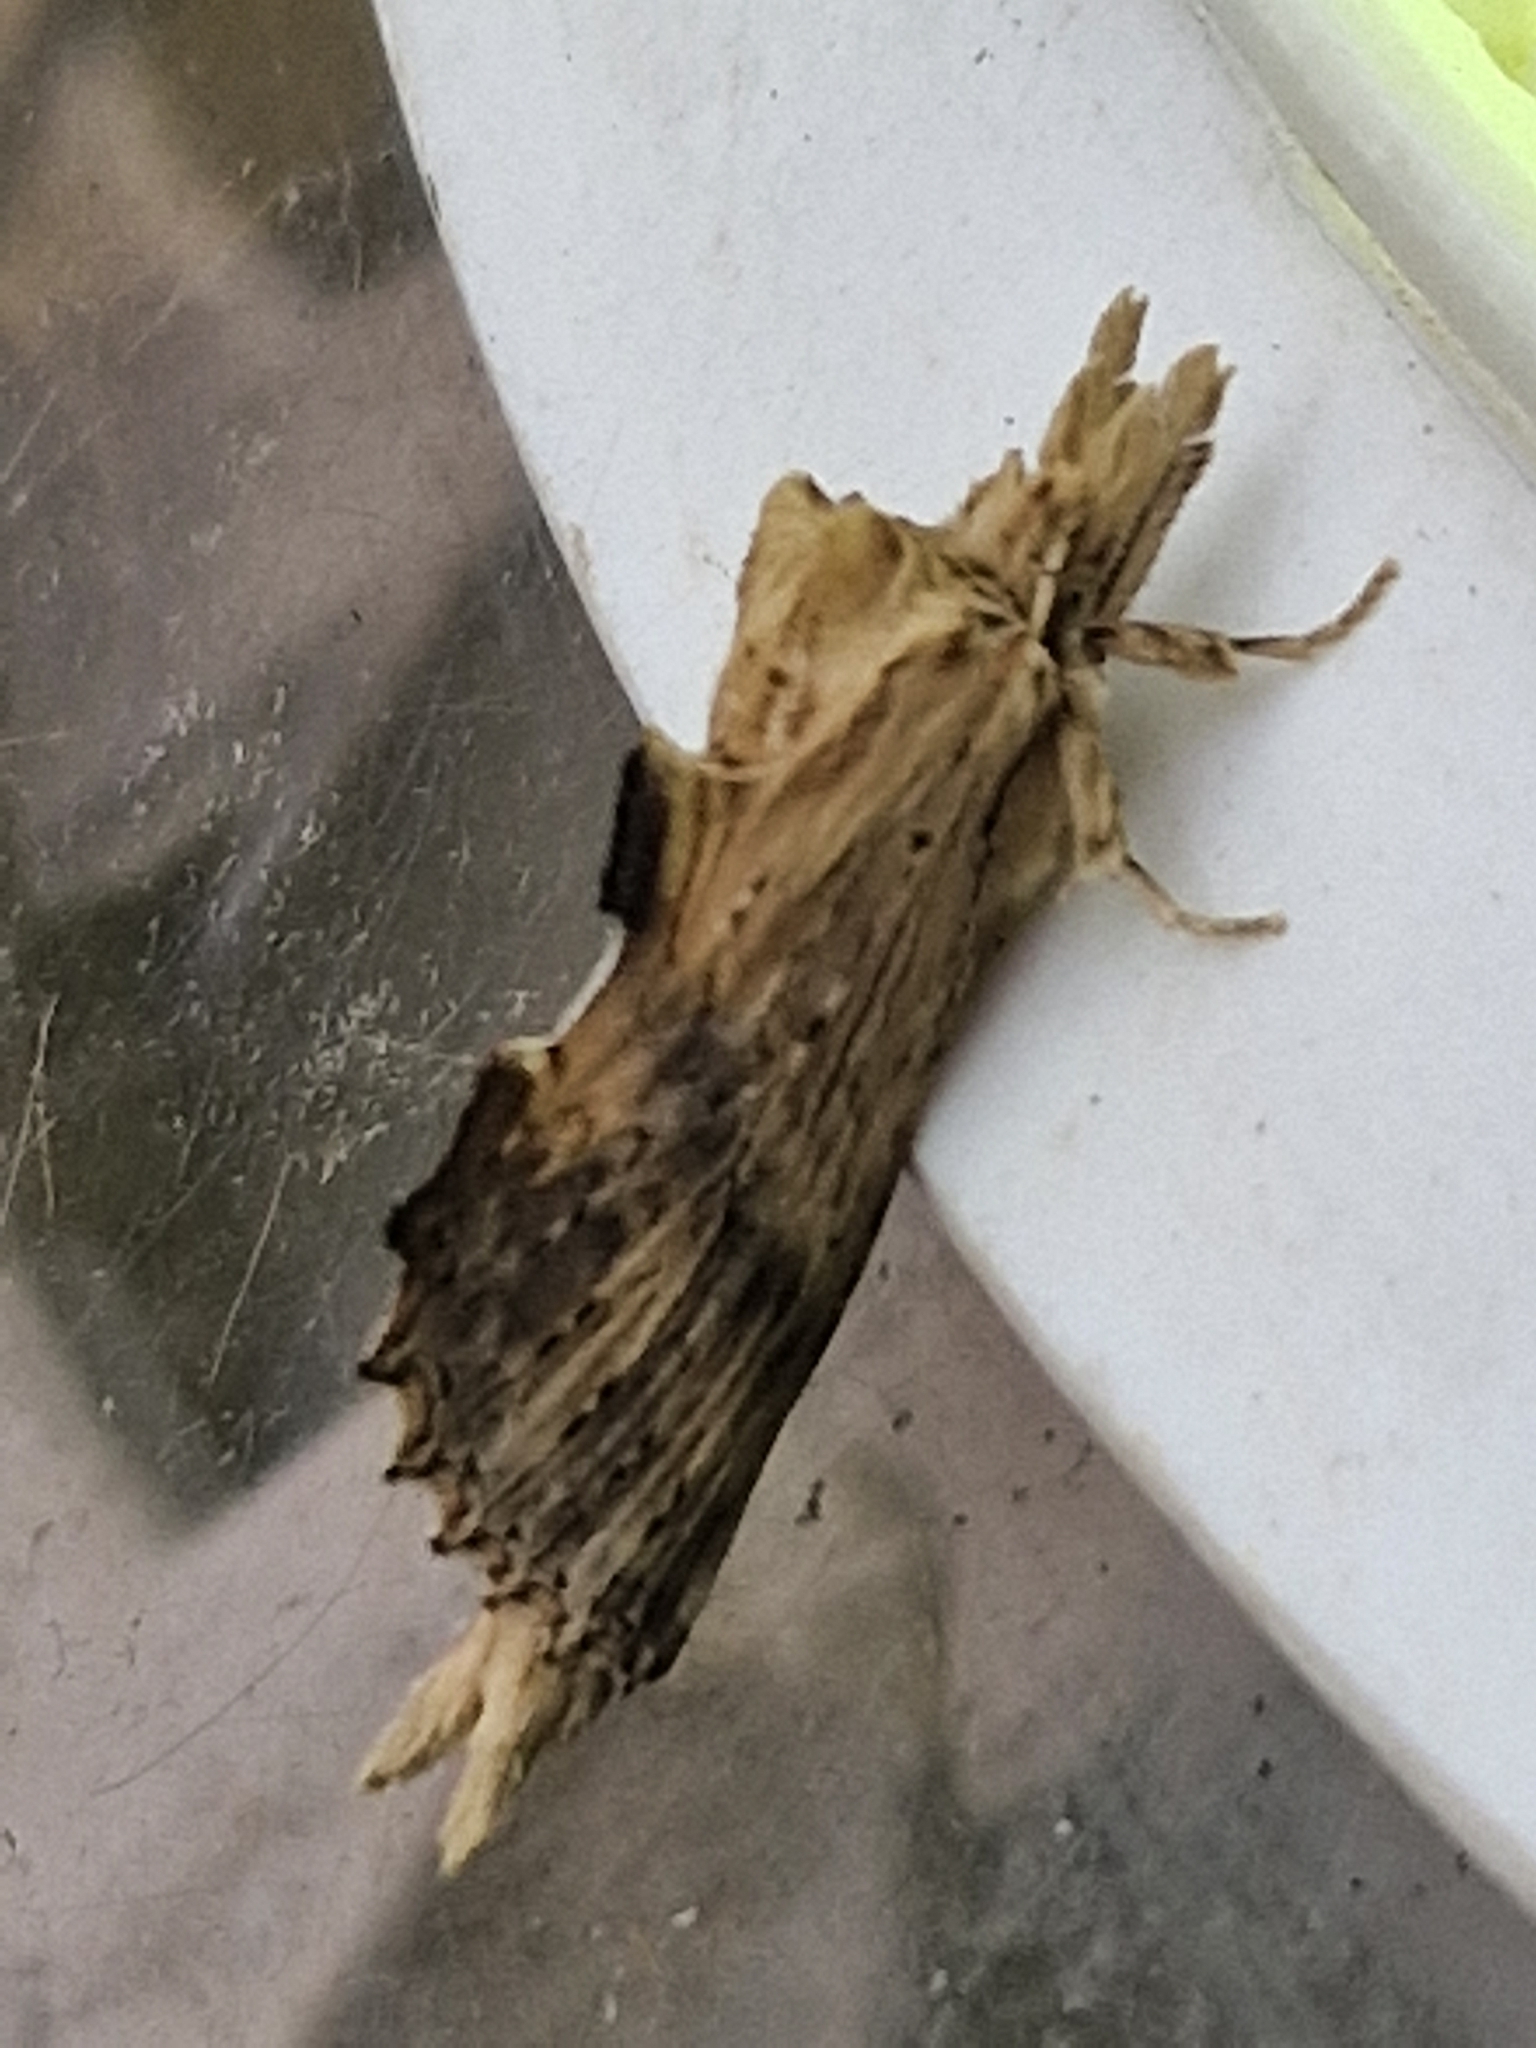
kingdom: Animalia
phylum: Arthropoda
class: Insecta
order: Lepidoptera
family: Notodontidae
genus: Pterostoma
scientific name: Pterostoma palpina
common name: Pale prominent
